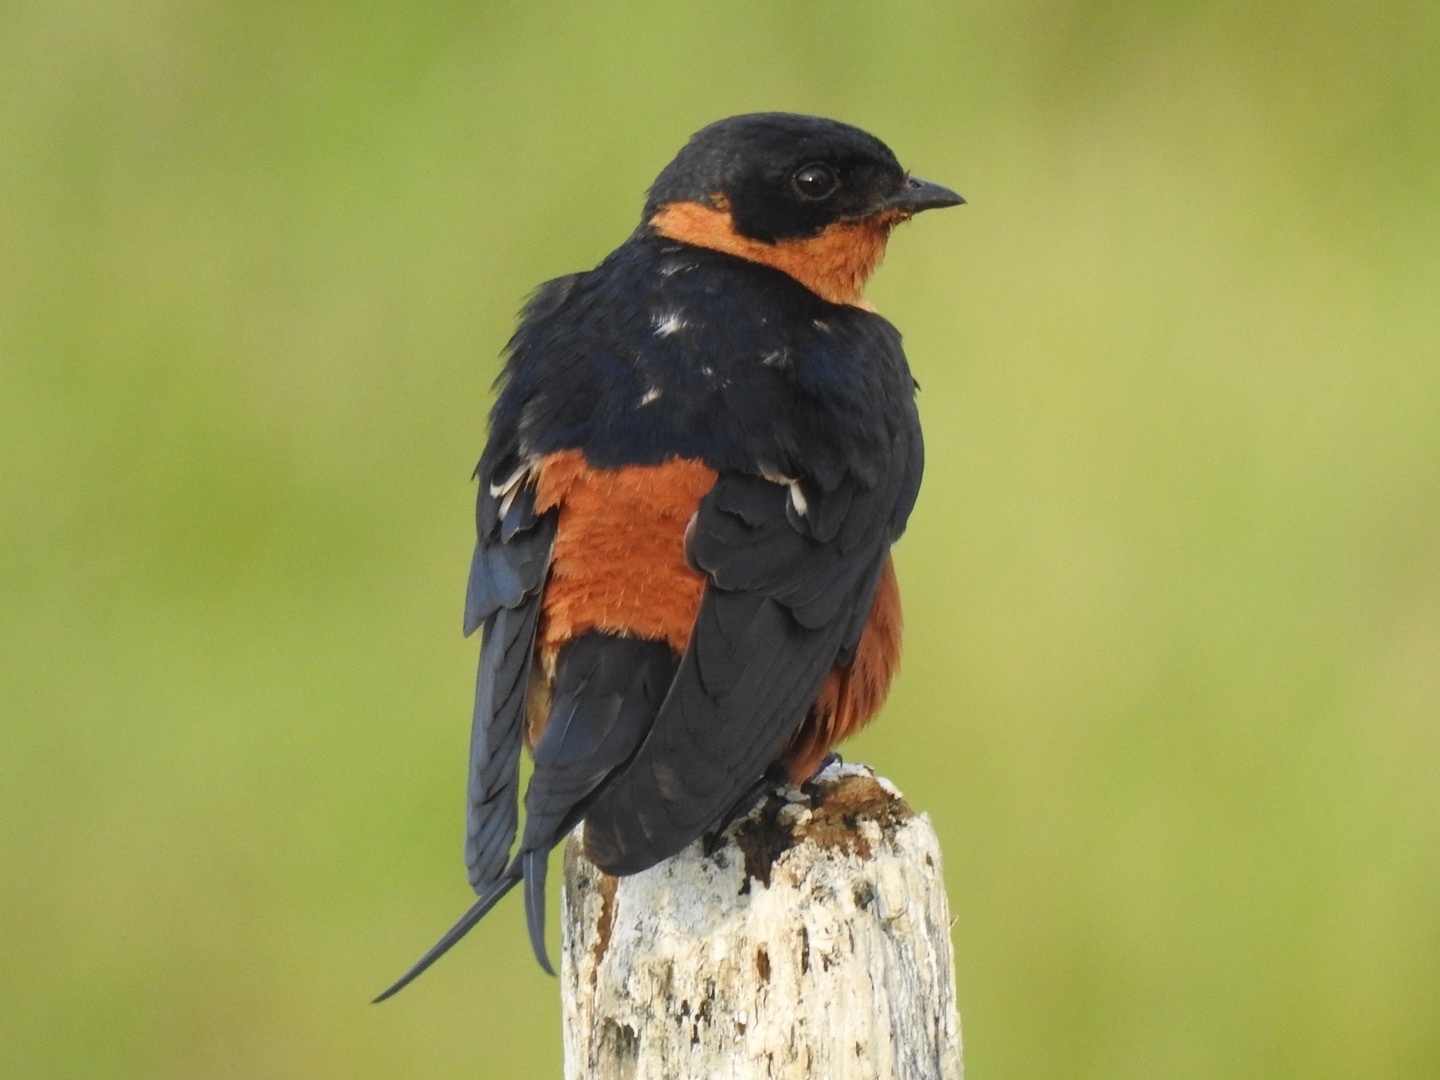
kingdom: Animalia
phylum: Chordata
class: Aves
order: Passeriformes
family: Hirundinidae
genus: Cecropis
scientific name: Cecropis semirufa
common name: Red-breasted swallow
